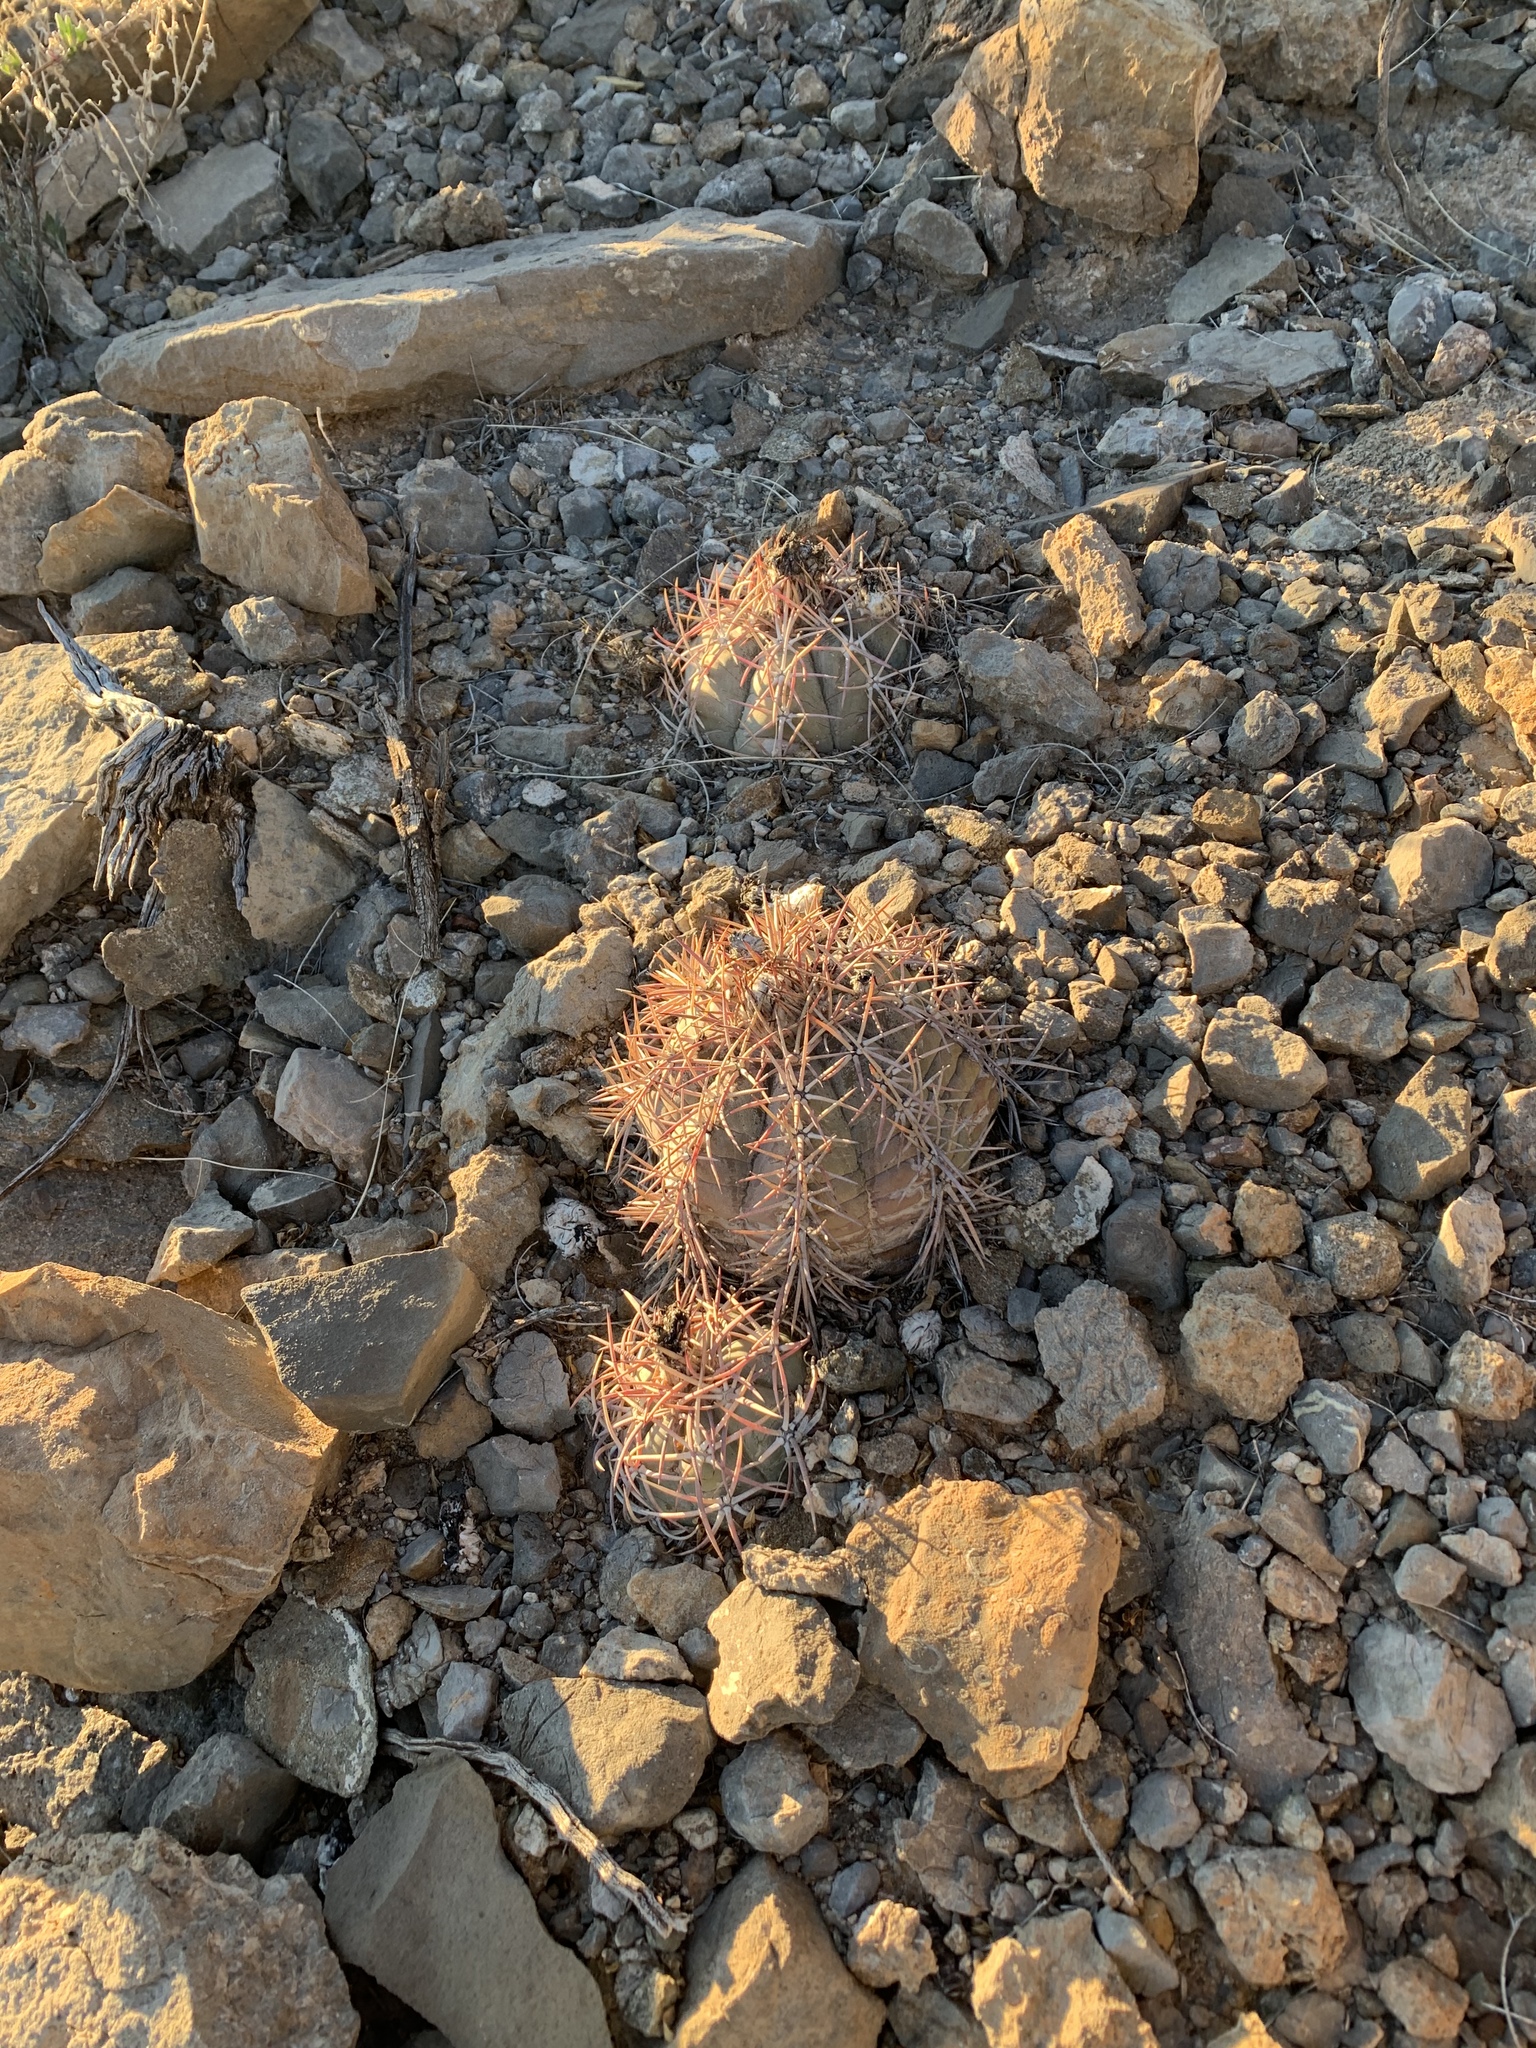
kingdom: Plantae
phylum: Tracheophyta
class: Magnoliopsida
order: Caryophyllales
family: Cactaceae
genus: Echinocactus
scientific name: Echinocactus horizonthalonius
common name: Devilshead
